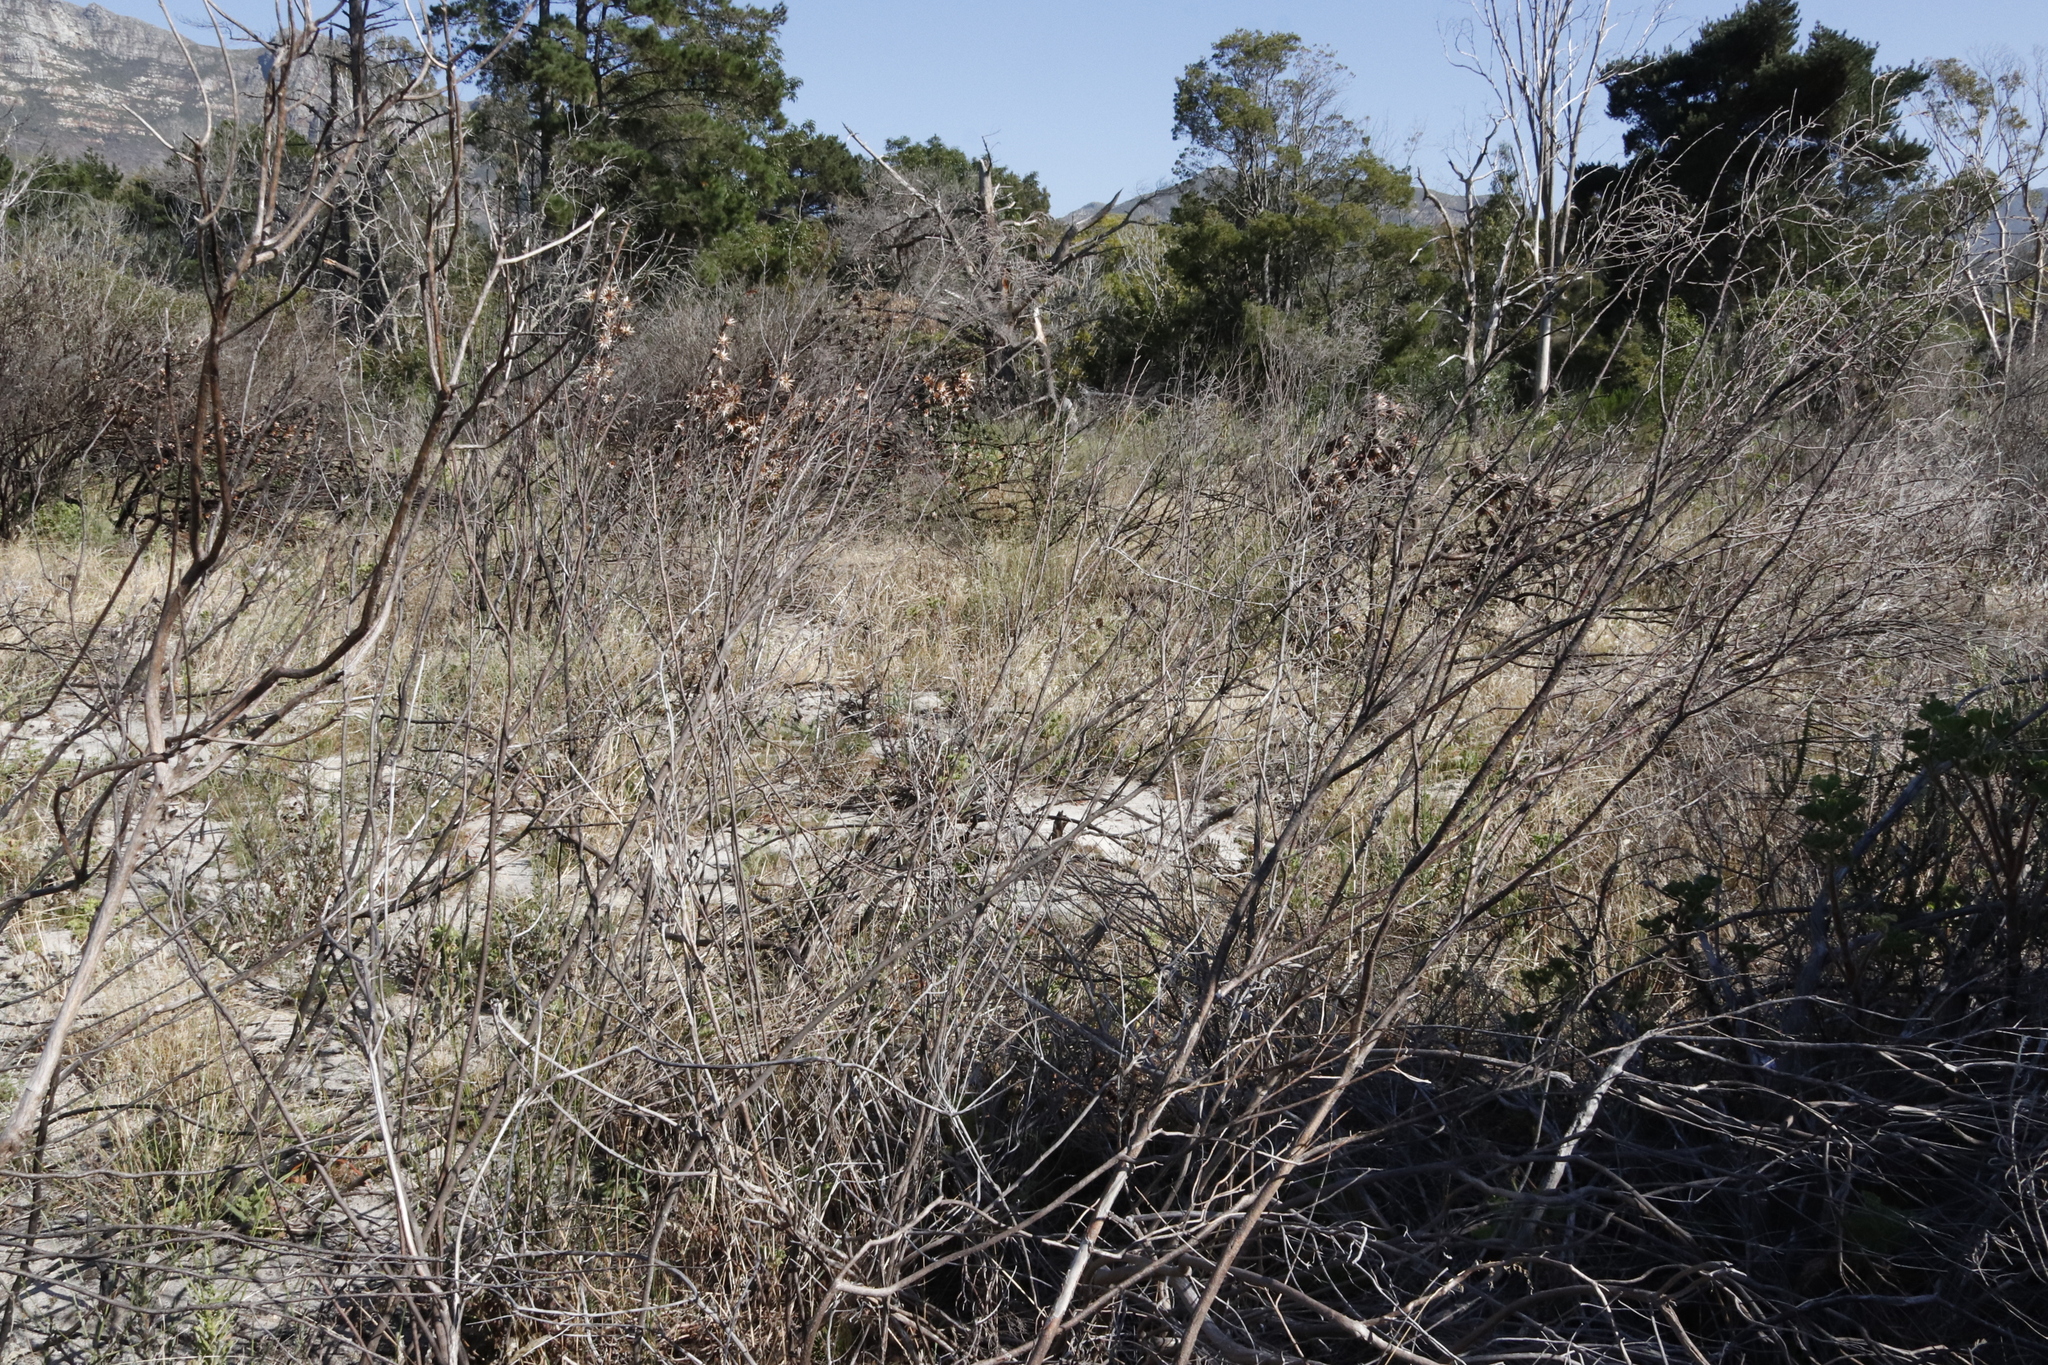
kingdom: Plantae
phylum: Tracheophyta
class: Magnoliopsida
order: Proteales
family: Proteaceae
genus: Protea
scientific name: Protea repens
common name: Sugarbush
